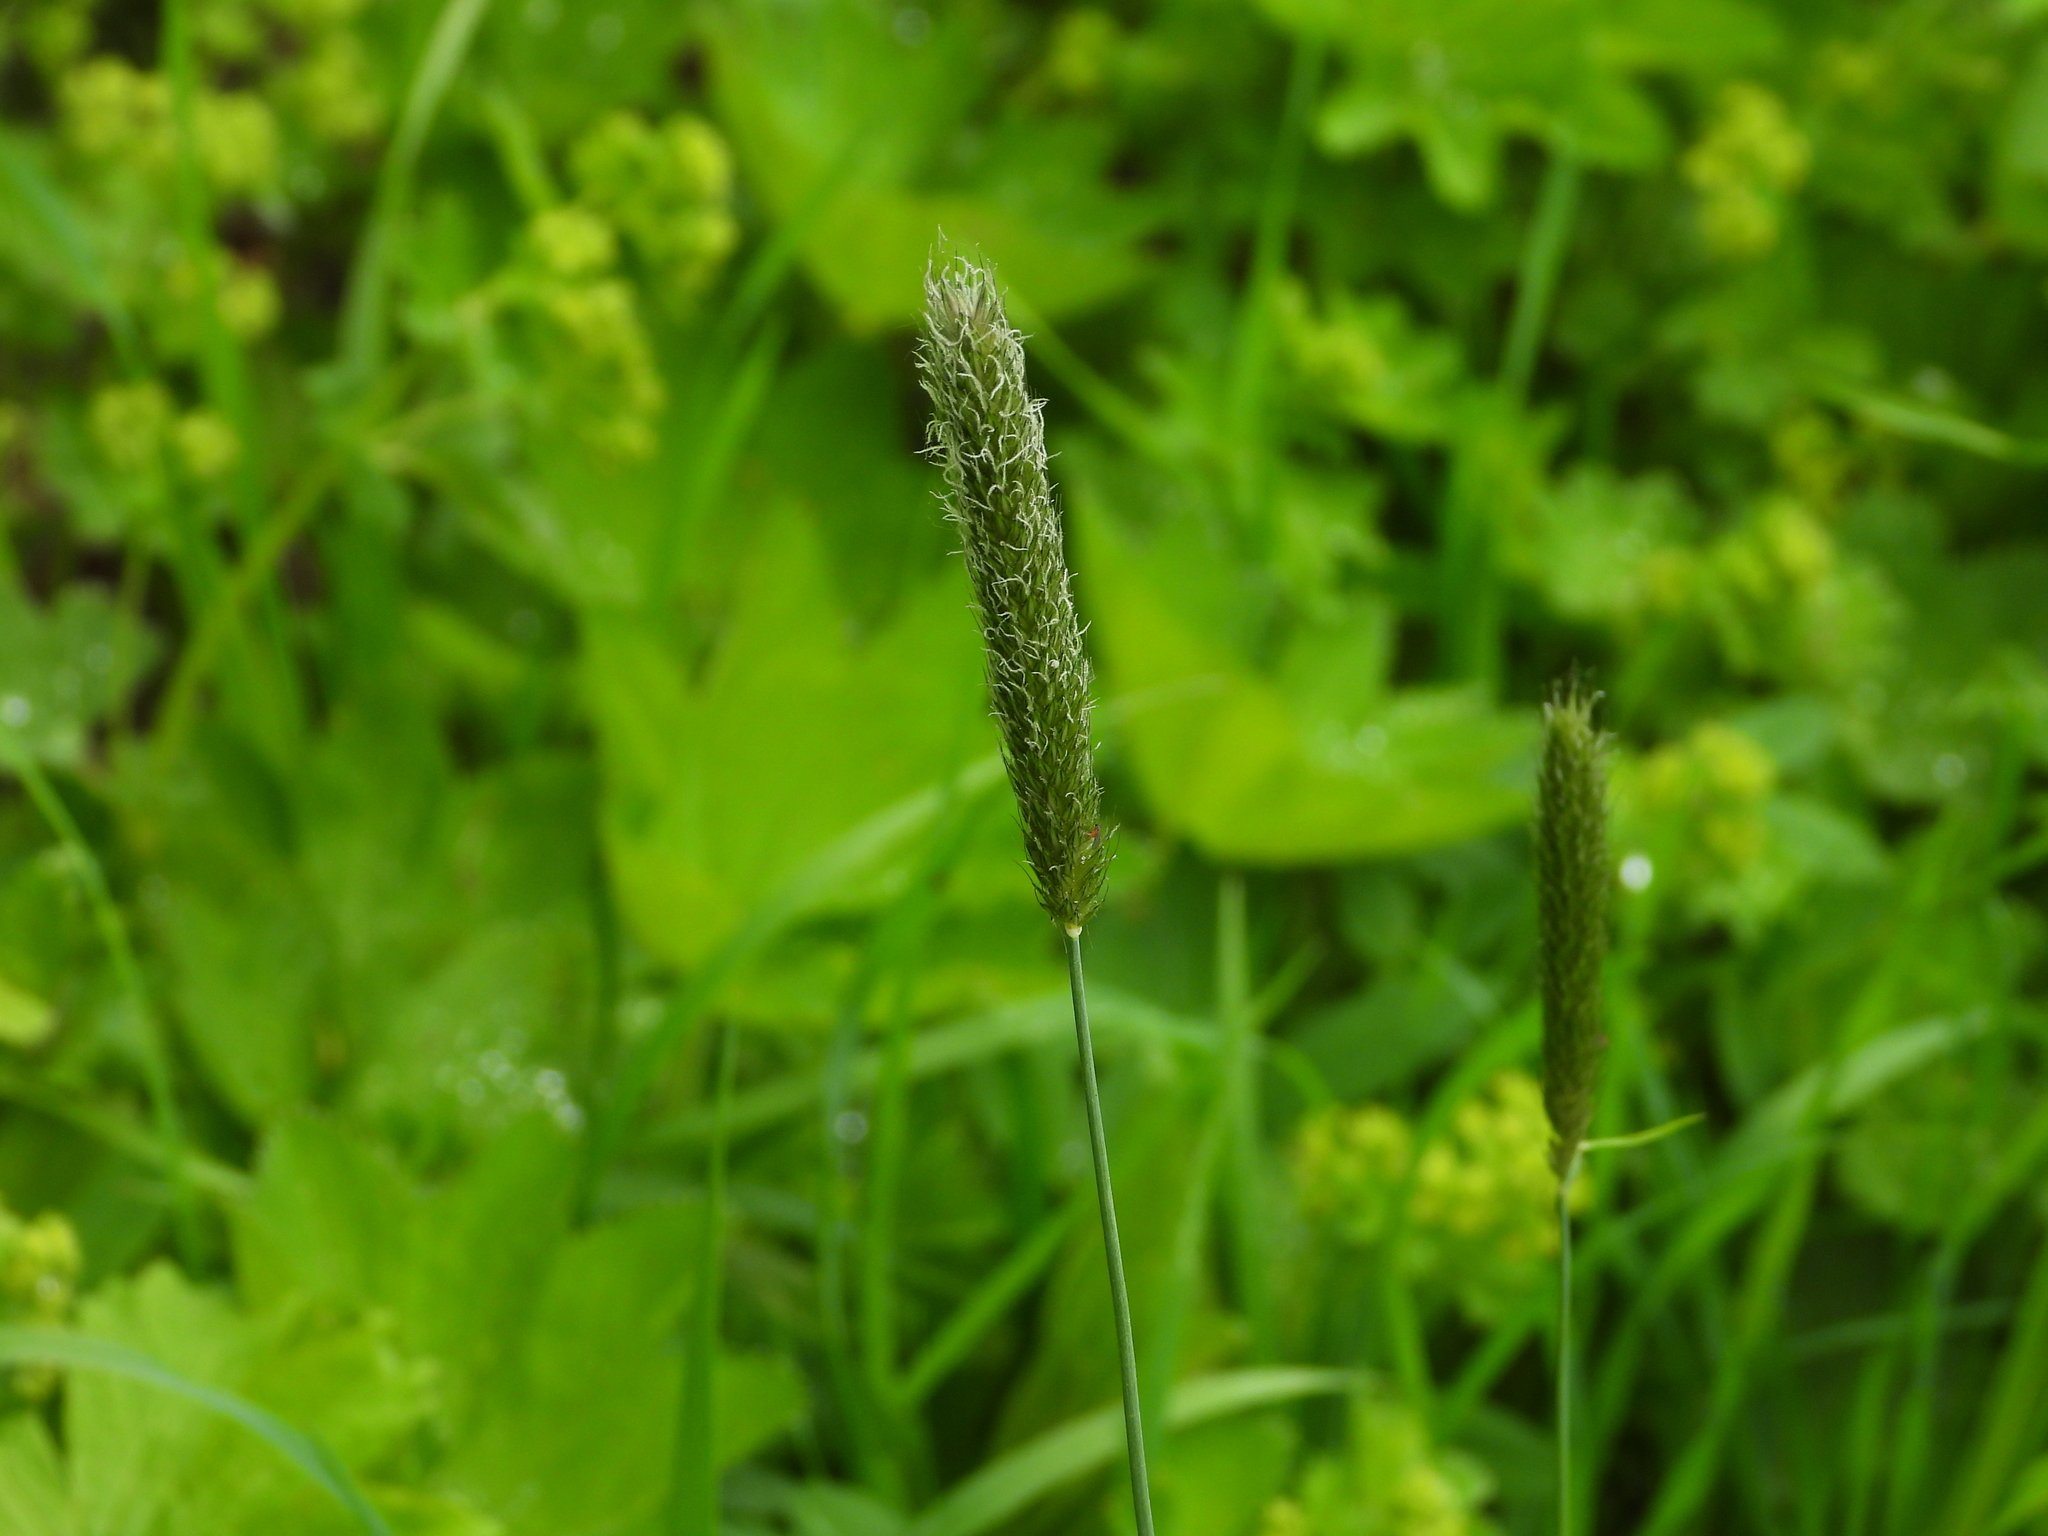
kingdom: Plantae
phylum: Tracheophyta
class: Liliopsida
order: Poales
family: Poaceae
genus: Alopecurus
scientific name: Alopecurus pratensis
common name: Meadow foxtail
